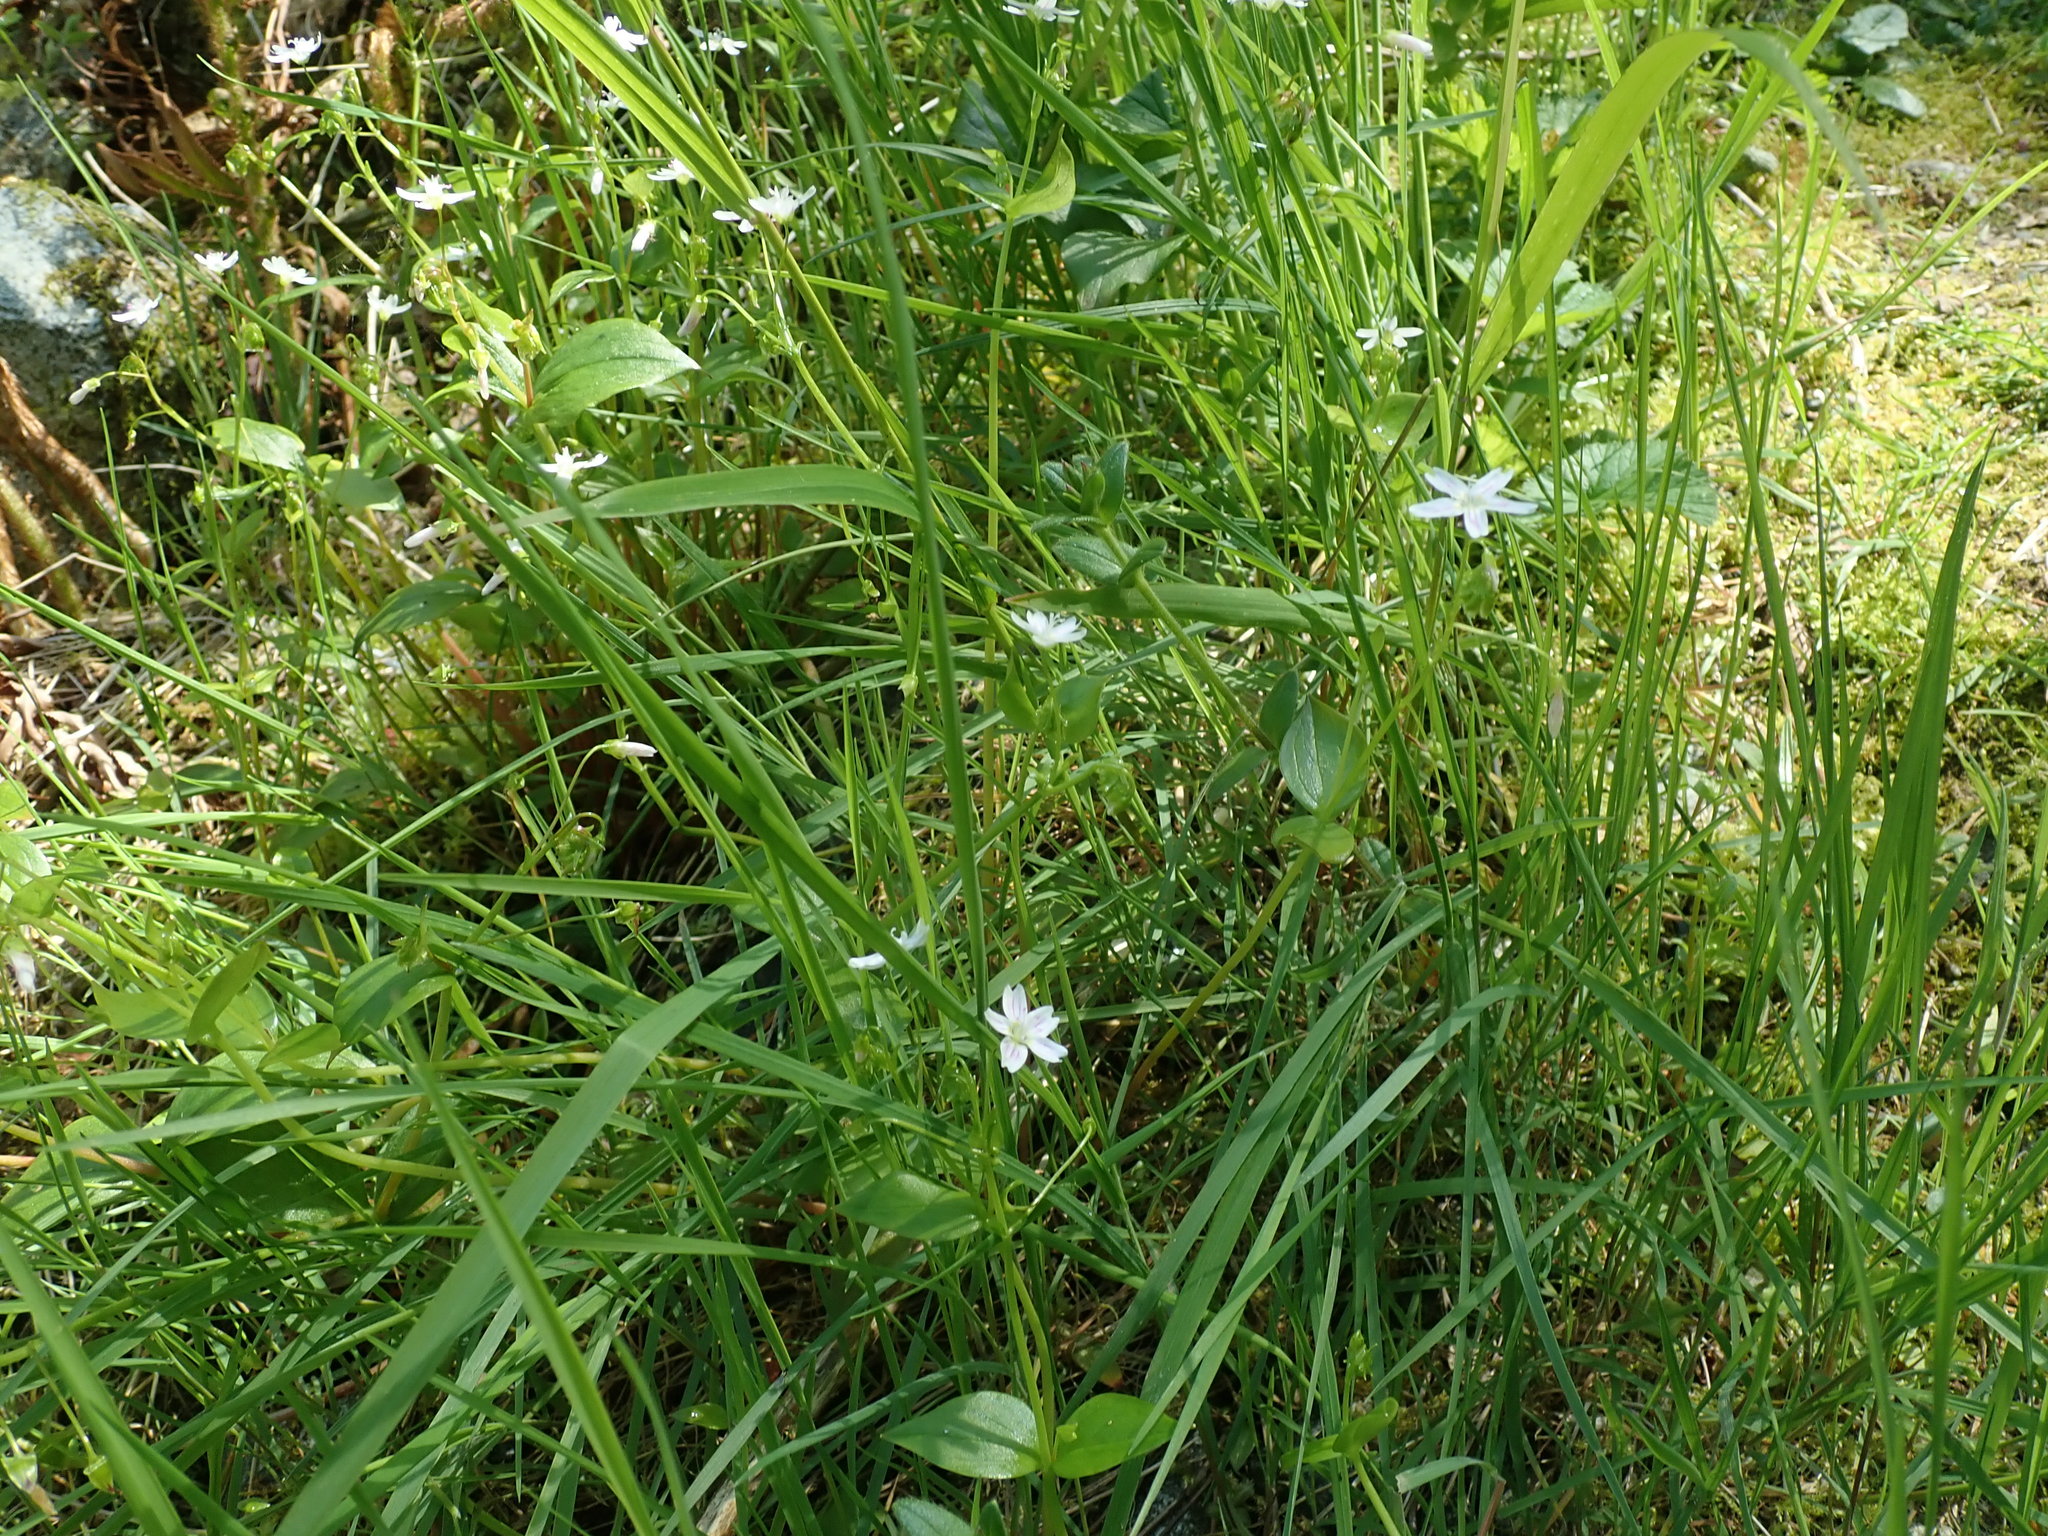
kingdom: Plantae
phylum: Tracheophyta
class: Magnoliopsida
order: Caryophyllales
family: Montiaceae
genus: Claytonia
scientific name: Claytonia sibirica
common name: Pink purslane
